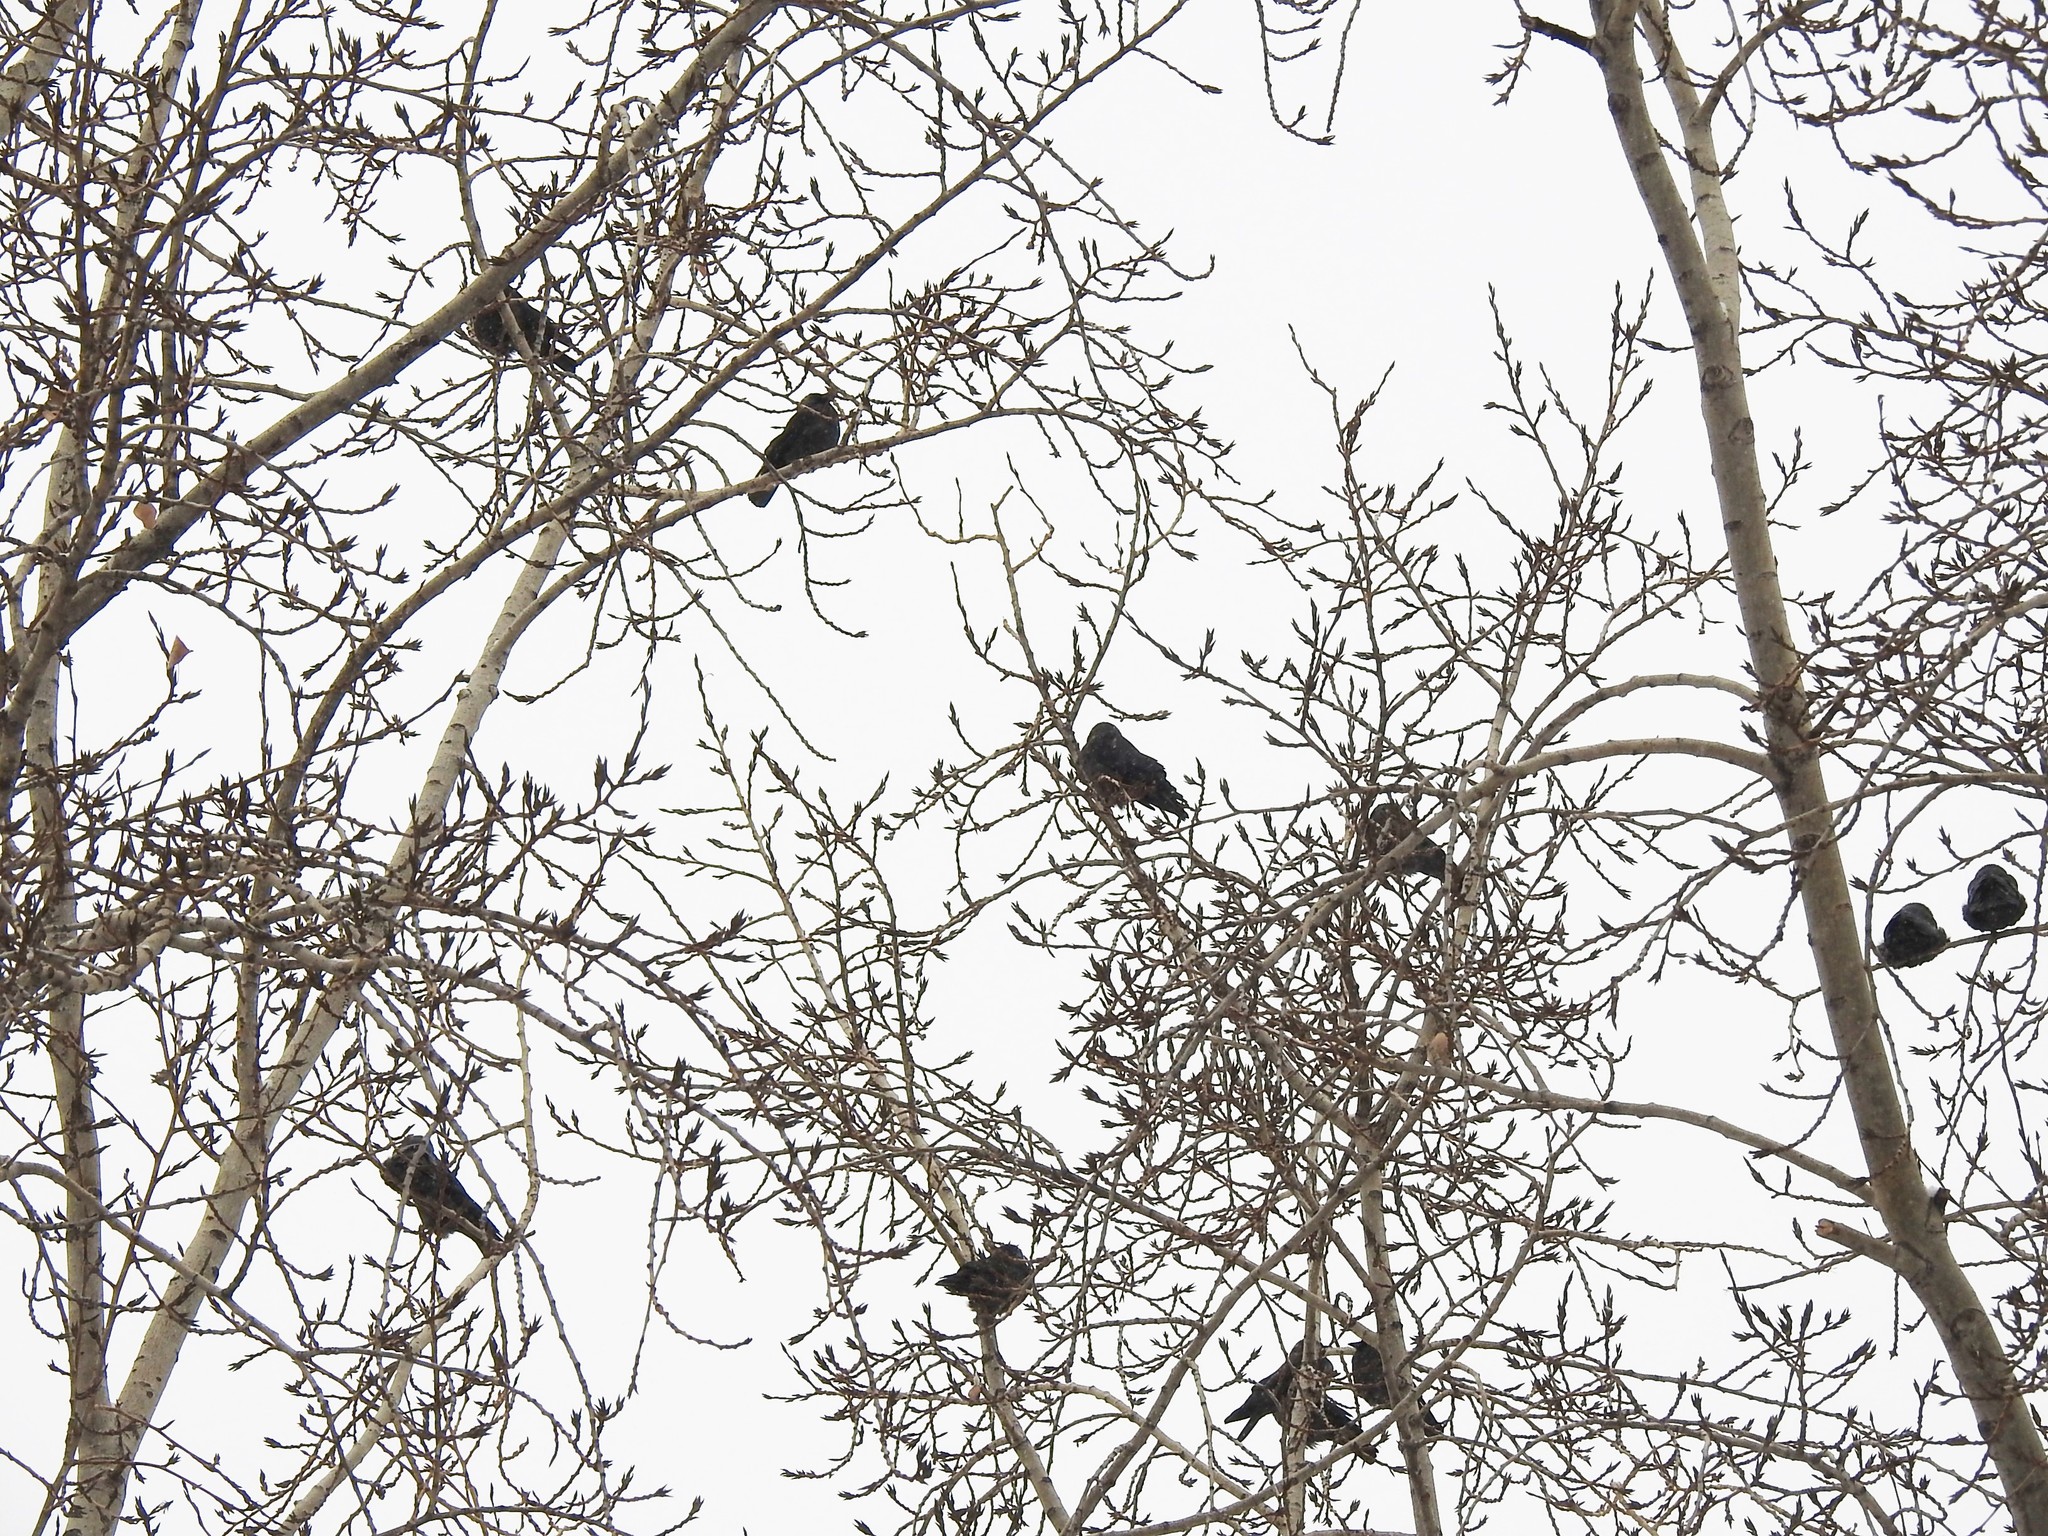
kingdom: Animalia
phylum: Chordata
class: Aves
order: Passeriformes
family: Corvidae
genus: Coloeus
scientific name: Coloeus monedula
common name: Western jackdaw
